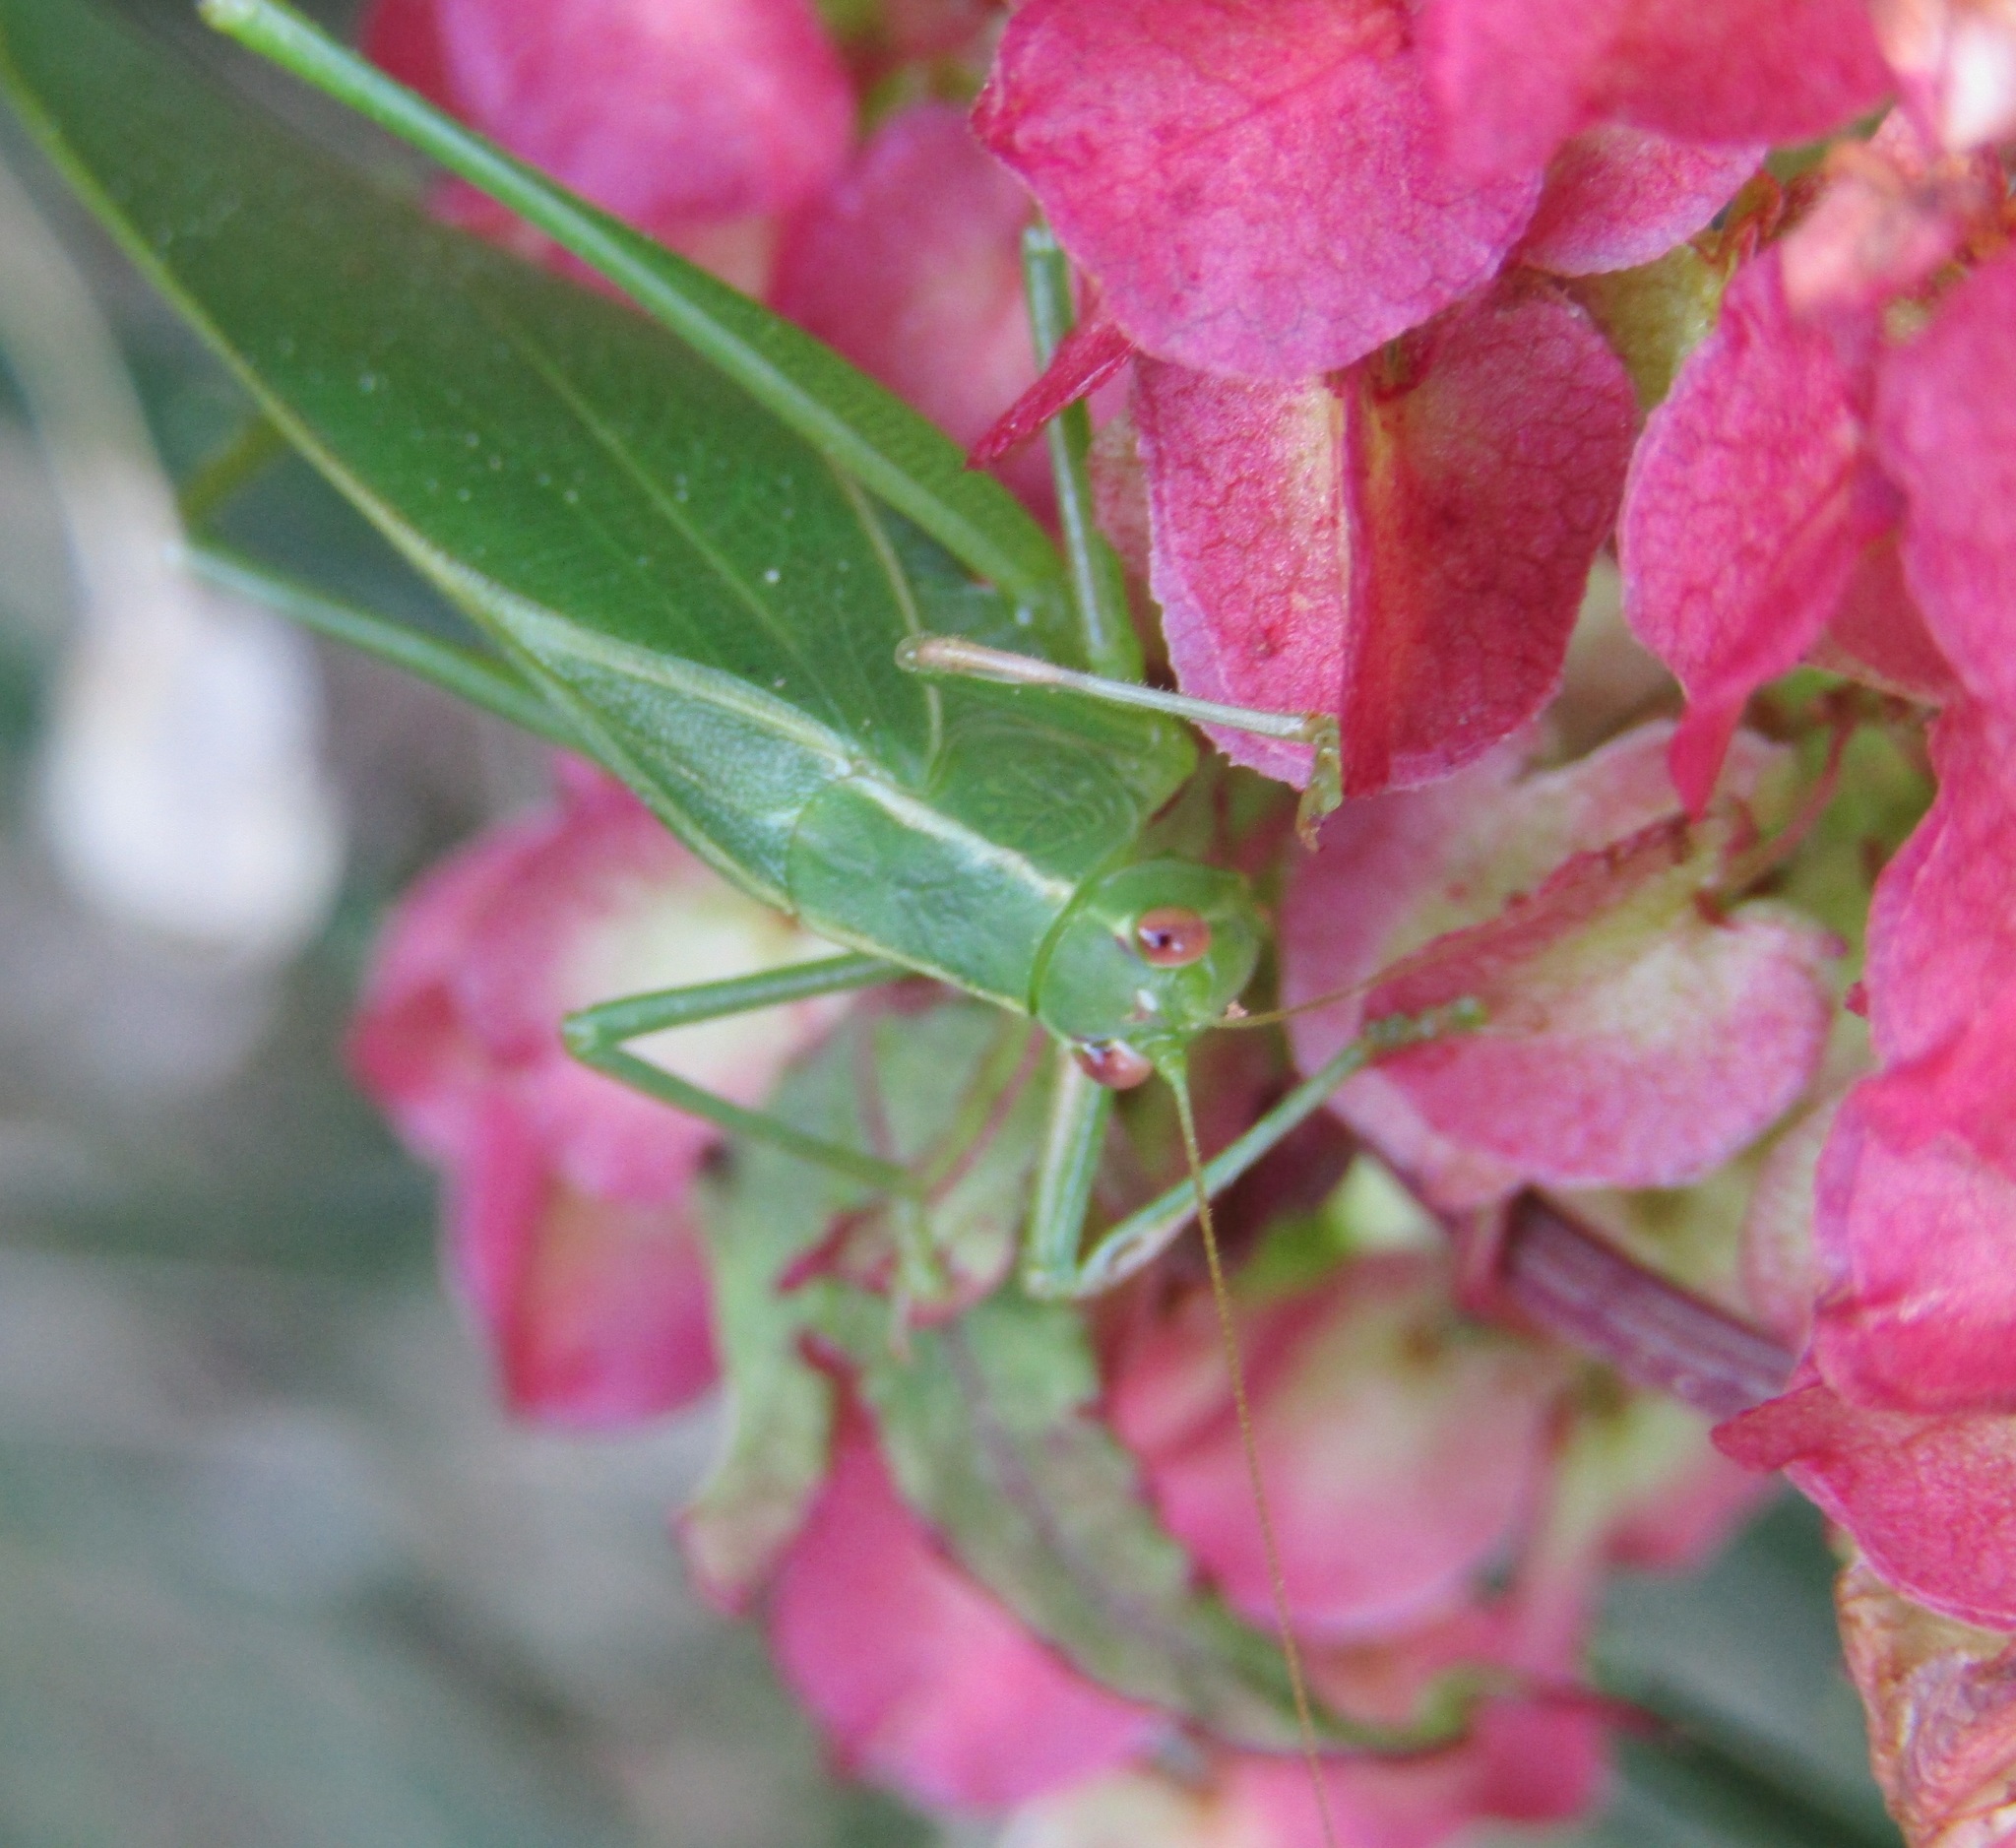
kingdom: Animalia
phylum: Arthropoda
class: Insecta
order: Orthoptera
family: Tettigoniidae
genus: Caedicia
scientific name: Caedicia simplex
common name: Common garden katydid
